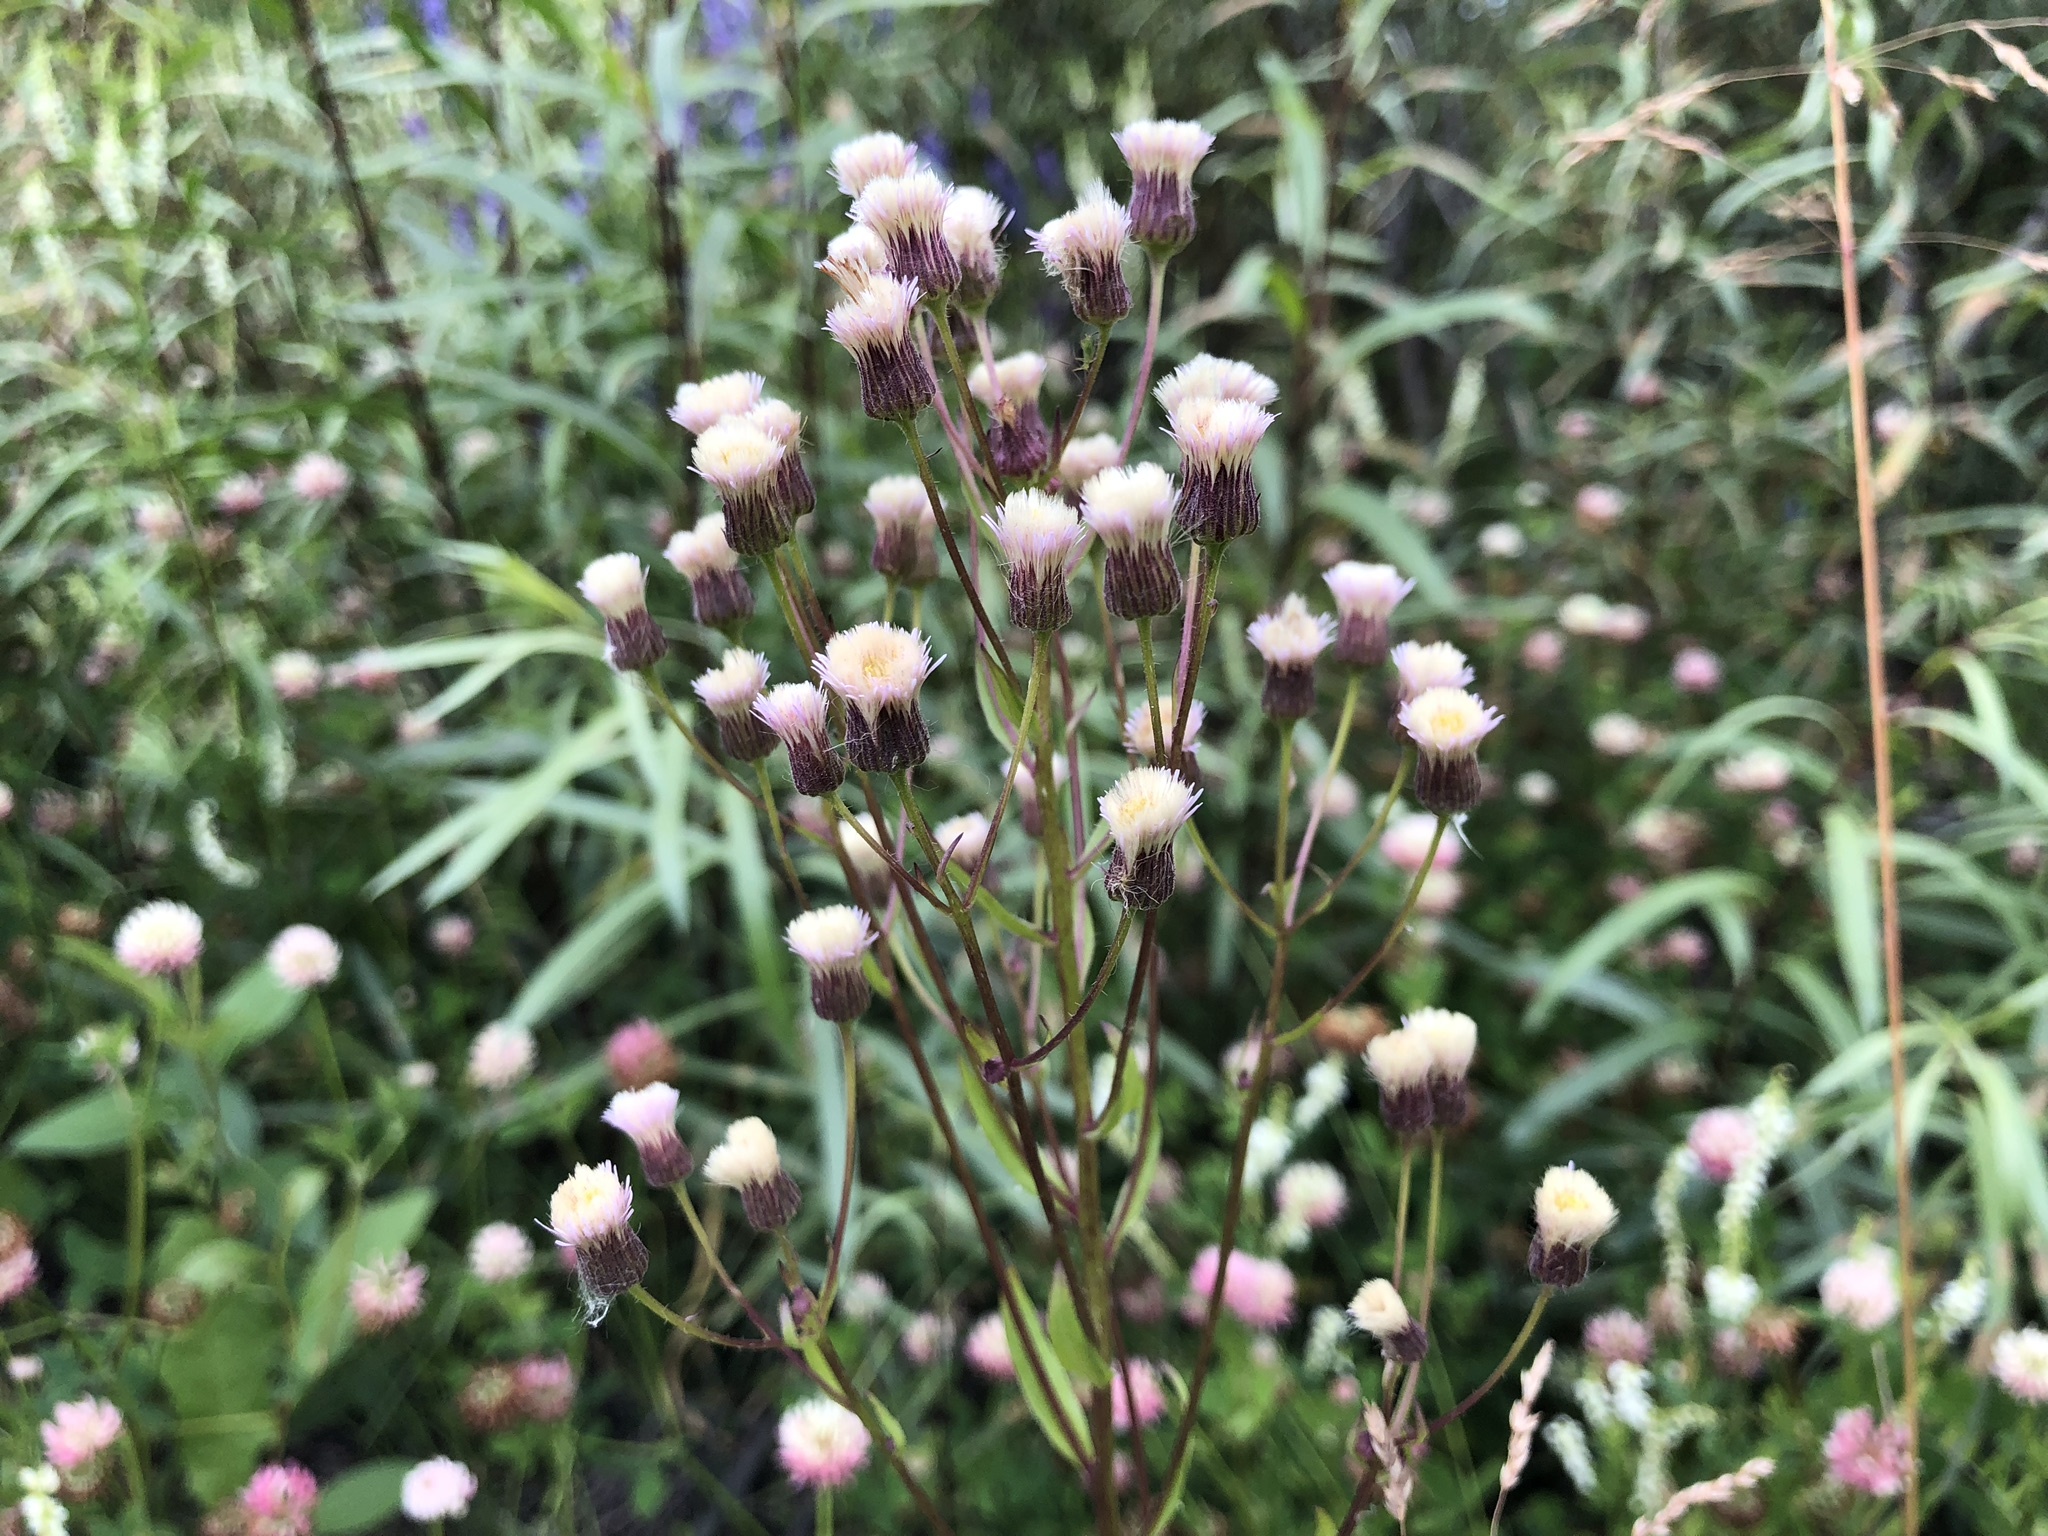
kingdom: Plantae
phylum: Tracheophyta
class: Magnoliopsida
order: Asterales
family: Asteraceae
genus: Erigeron
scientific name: Erigeron acris
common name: Blue fleabane
